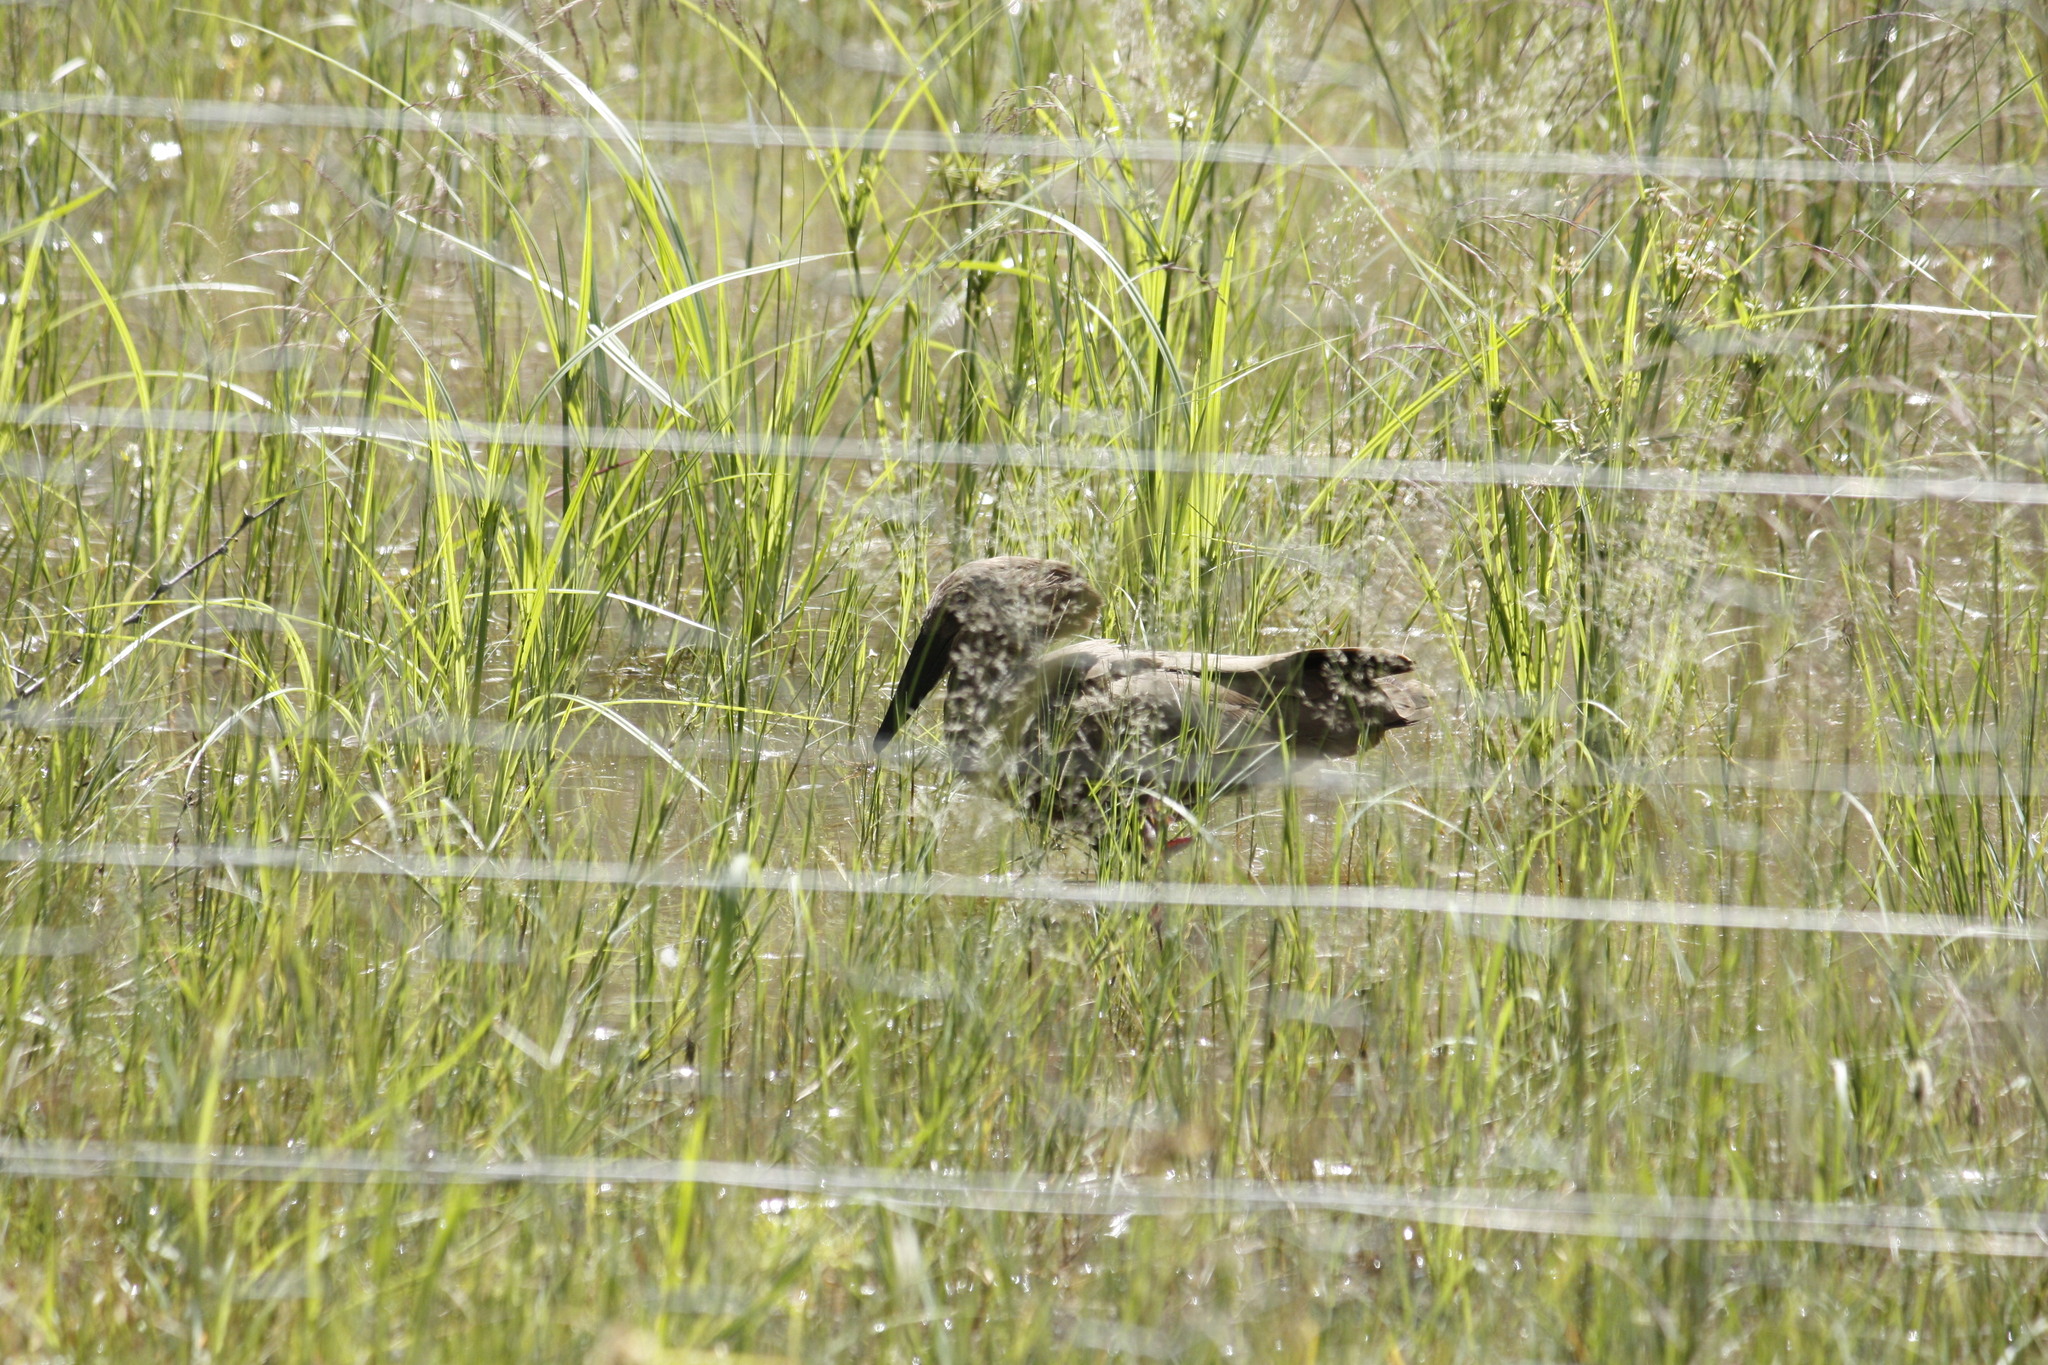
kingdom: Animalia
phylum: Chordata
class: Aves
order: Pelecaniformes
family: Scopidae
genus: Scopus
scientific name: Scopus umbretta
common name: Hamerkop
